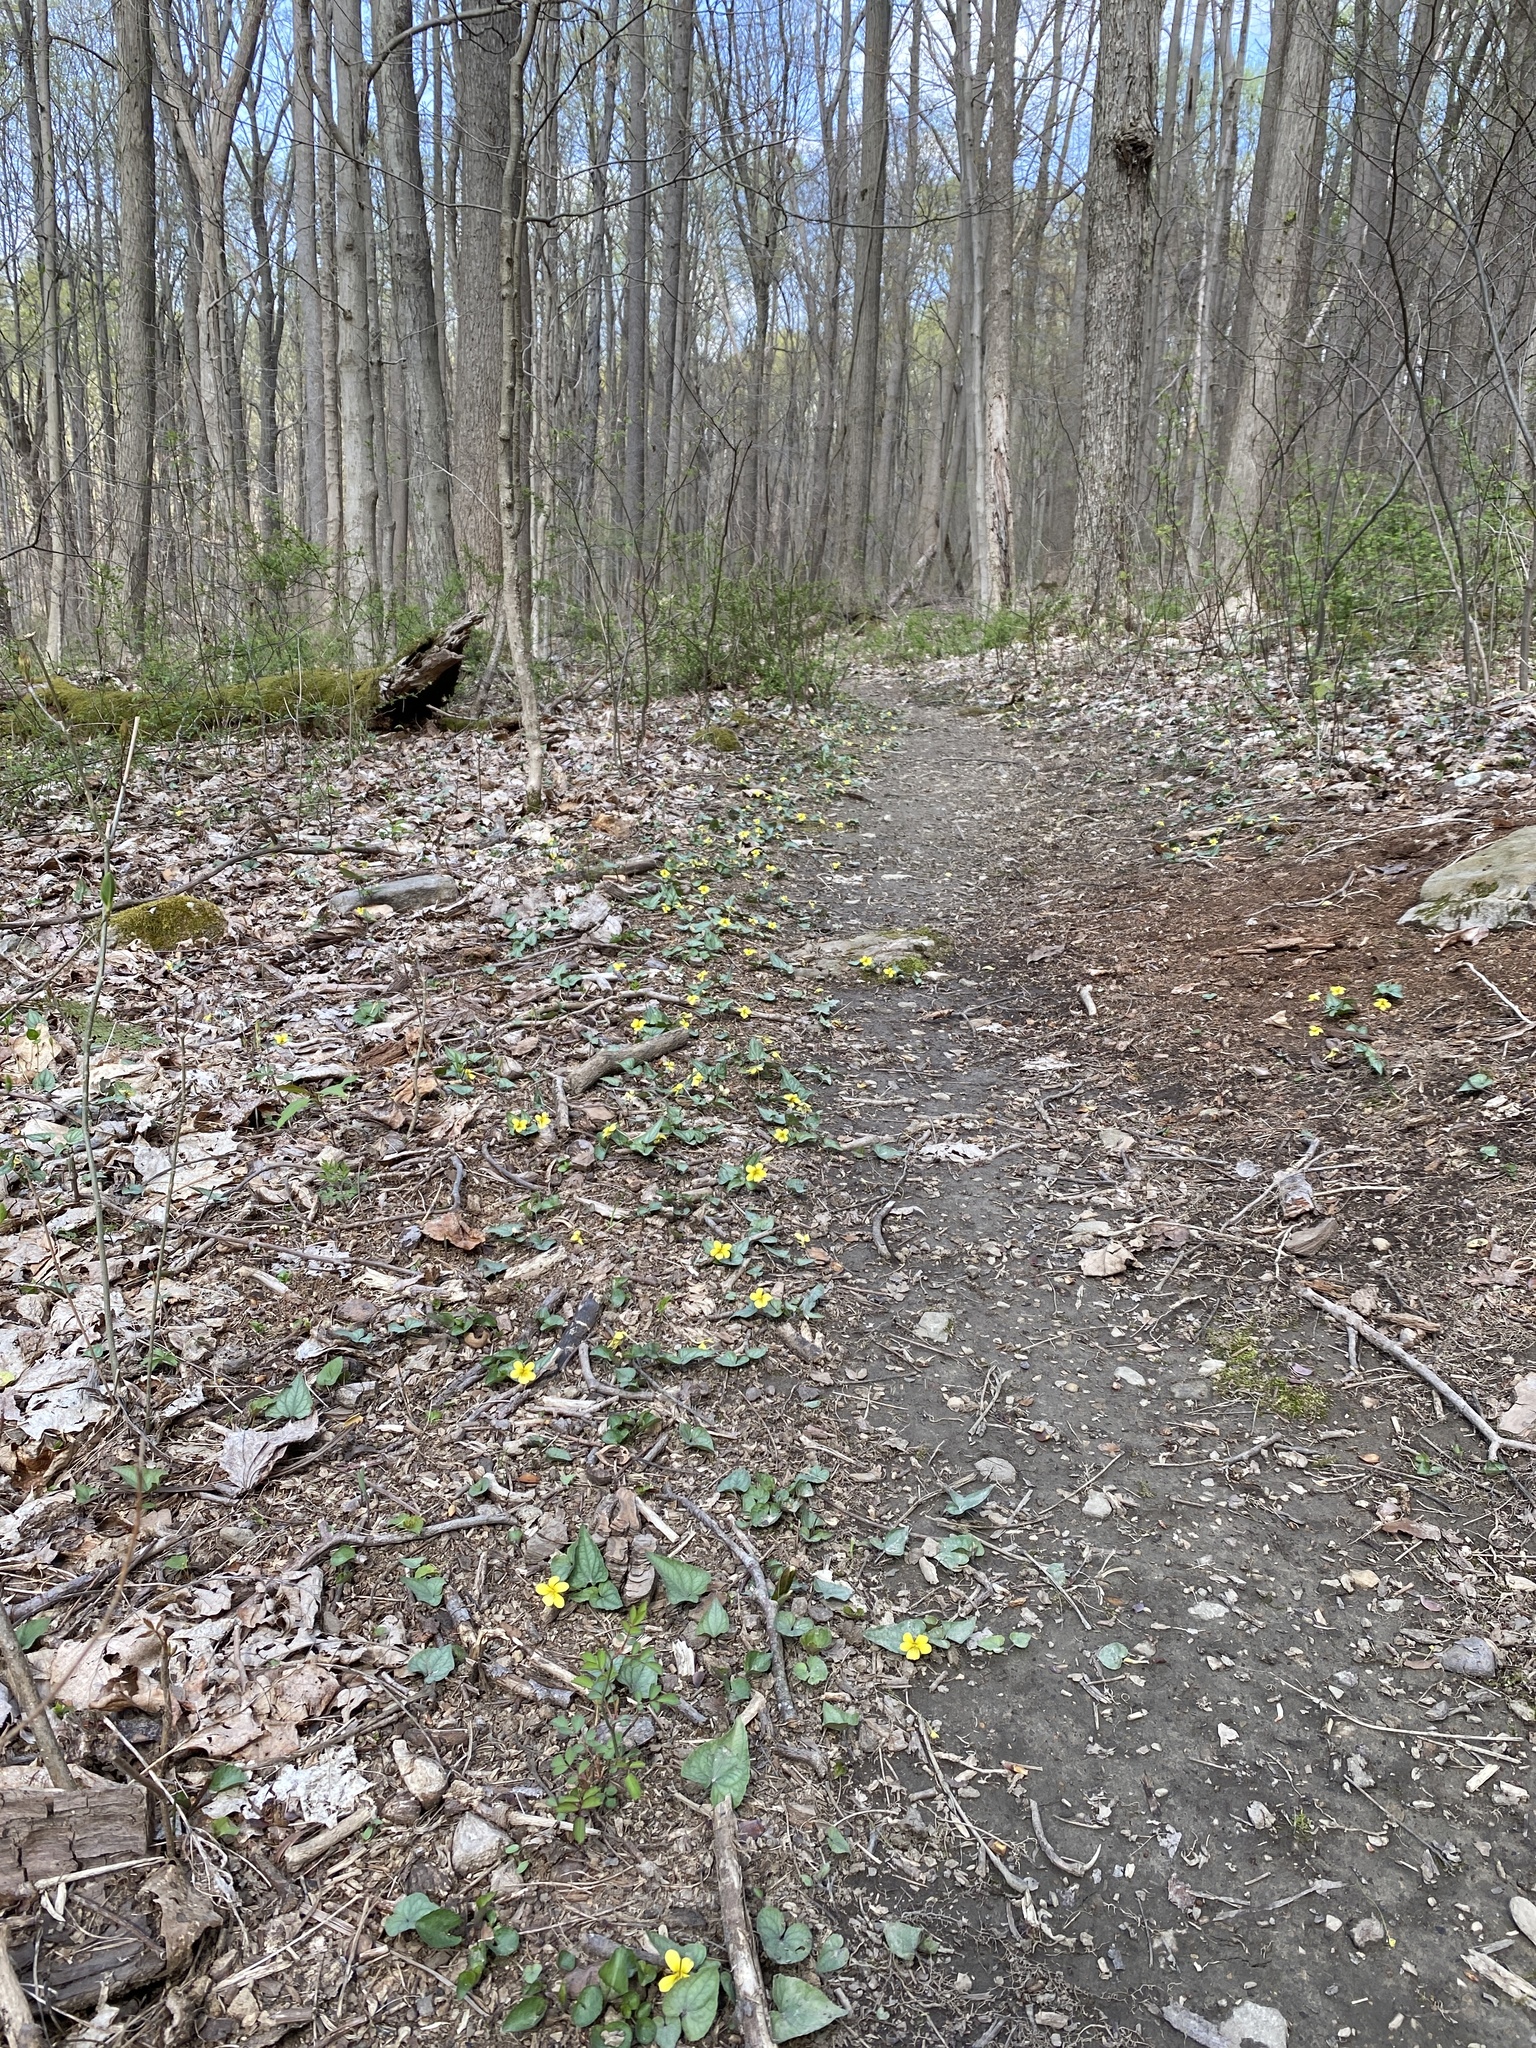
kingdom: Plantae
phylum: Tracheophyta
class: Magnoliopsida
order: Malpighiales
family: Violaceae
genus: Viola
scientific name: Viola hastata
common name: Spear-leaf violet
